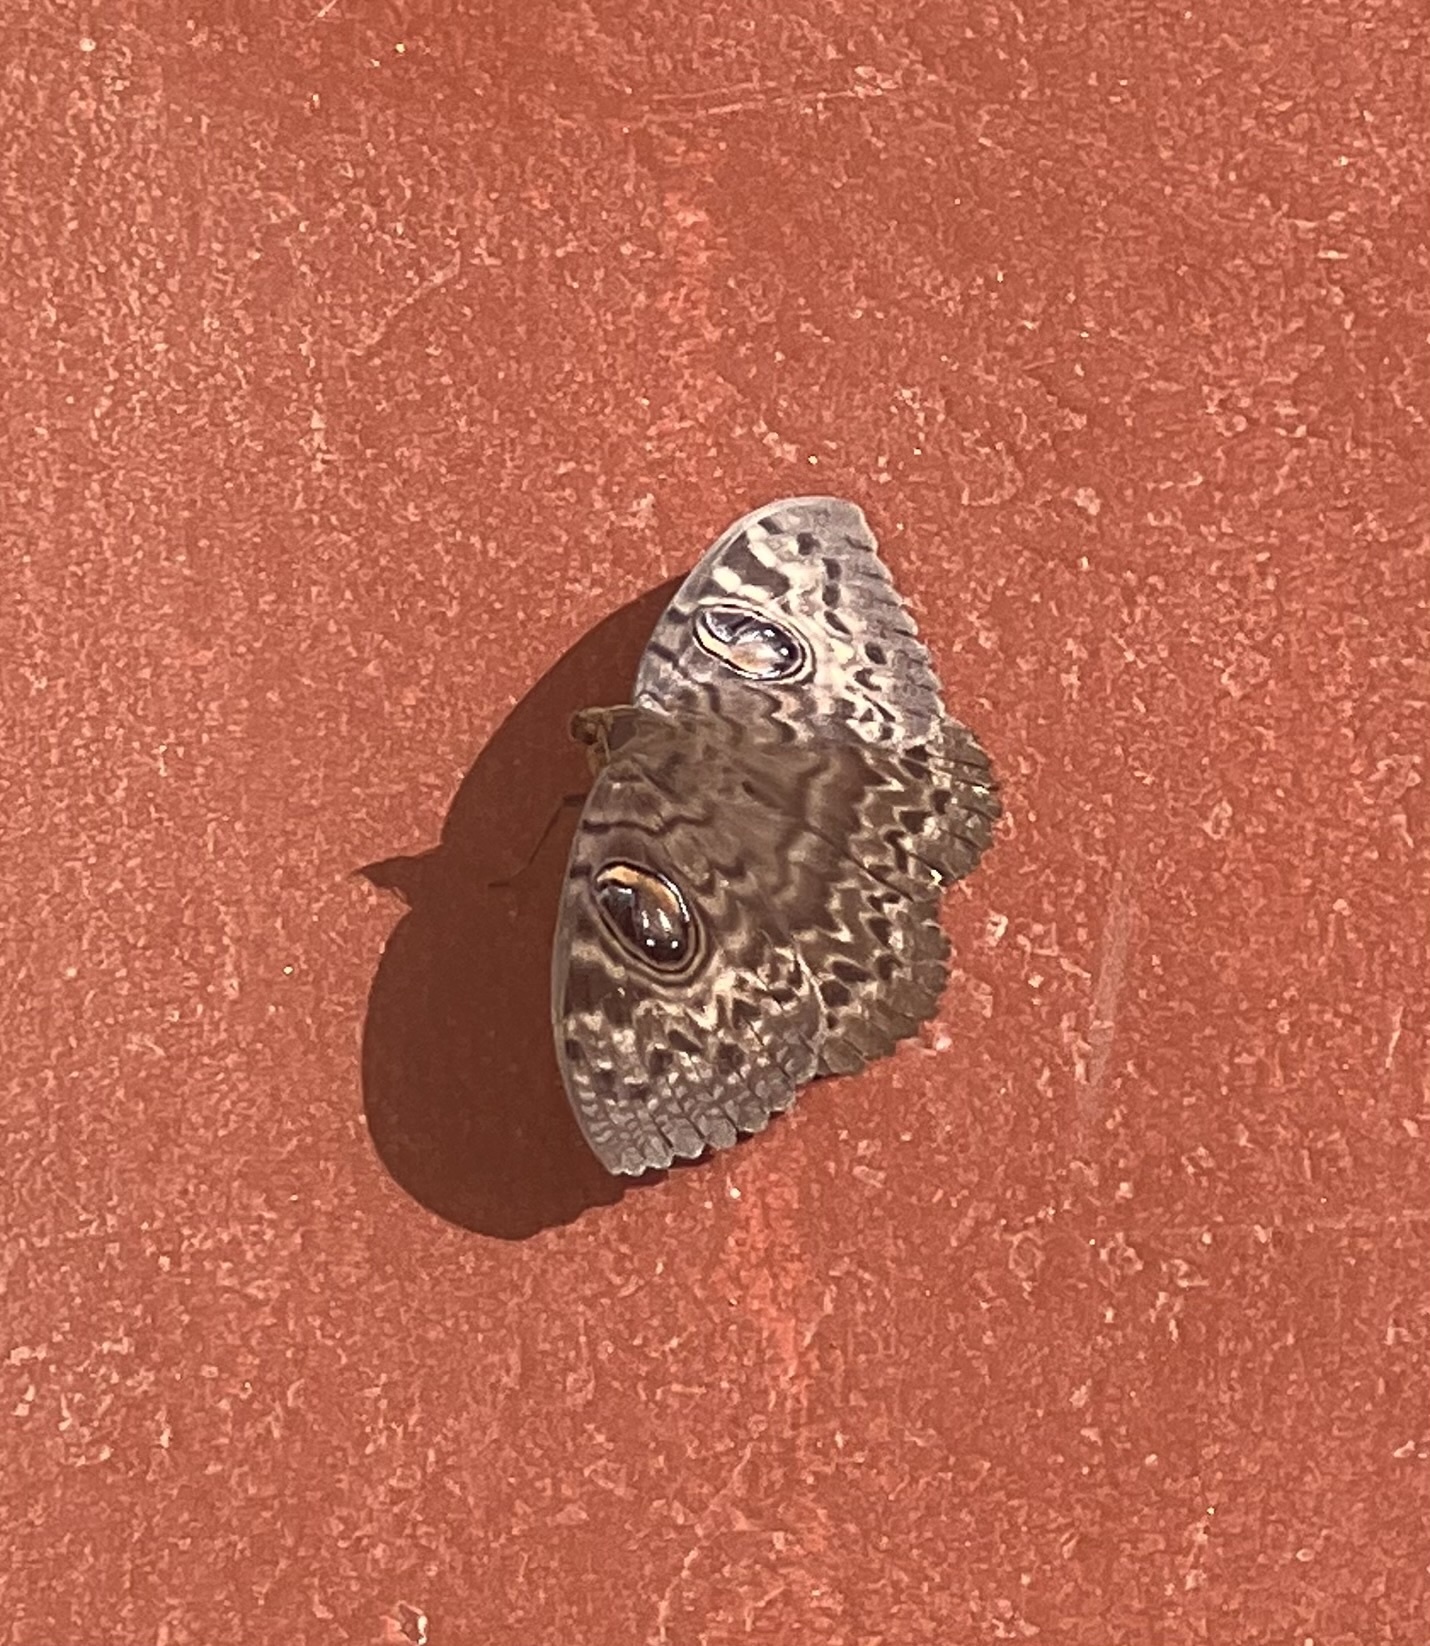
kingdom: Animalia
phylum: Arthropoda
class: Insecta
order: Lepidoptera
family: Erebidae
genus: Erebus
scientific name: Erebus walkeri
